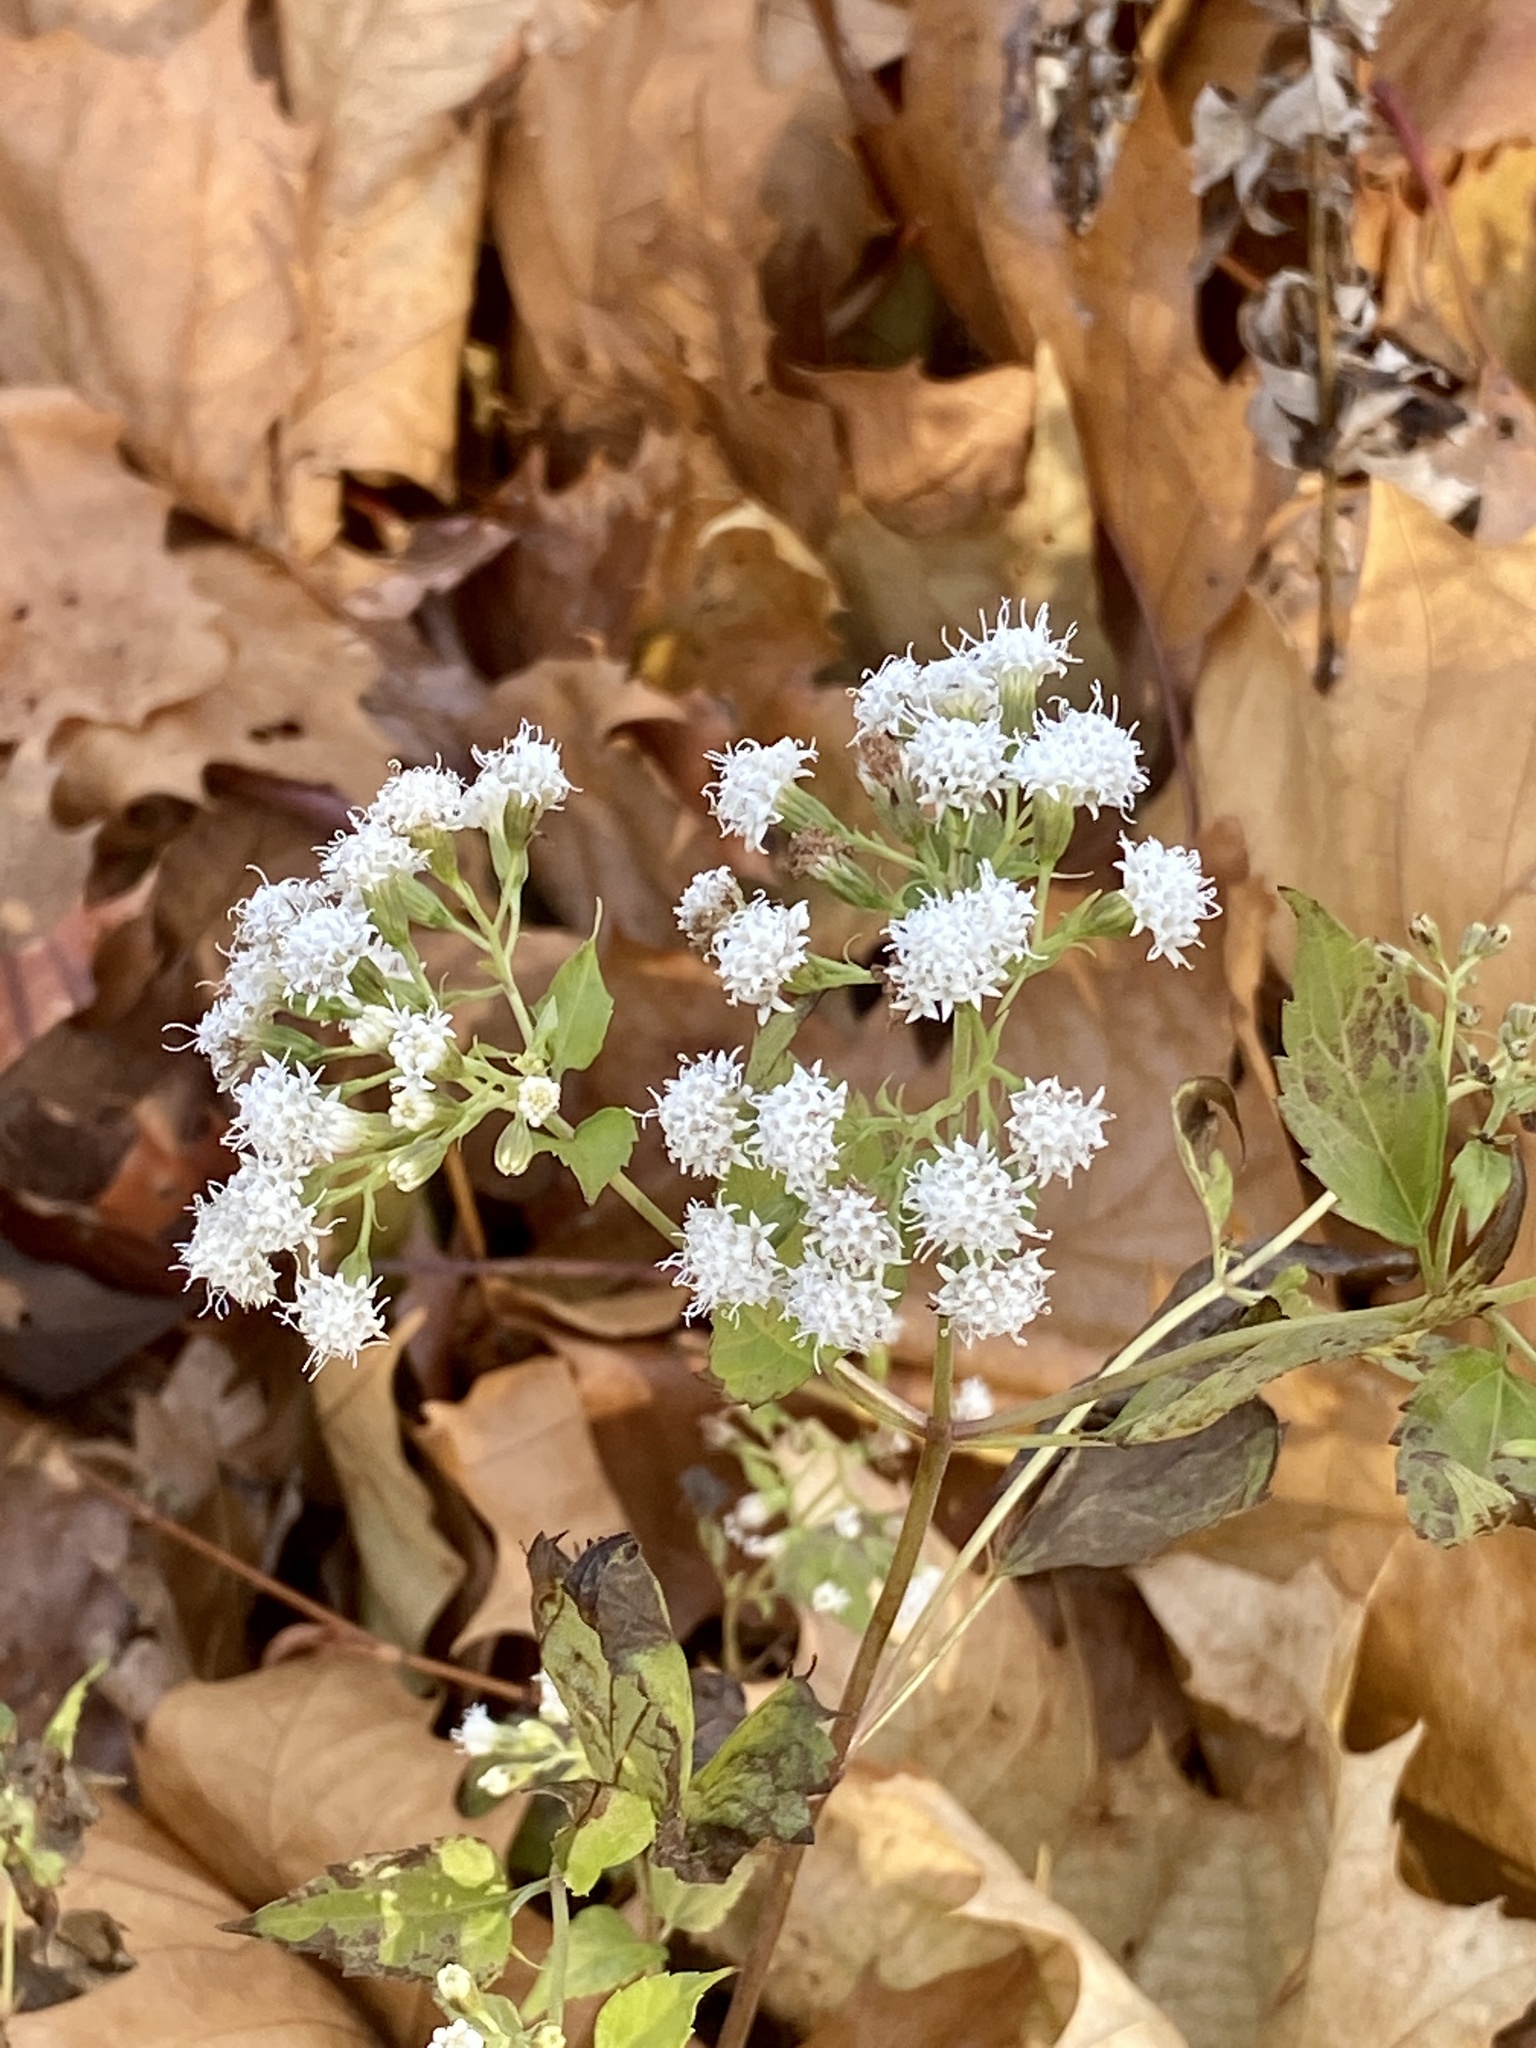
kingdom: Plantae
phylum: Tracheophyta
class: Magnoliopsida
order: Asterales
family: Asteraceae
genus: Ageratina
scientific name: Ageratina altissima
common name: White snakeroot
